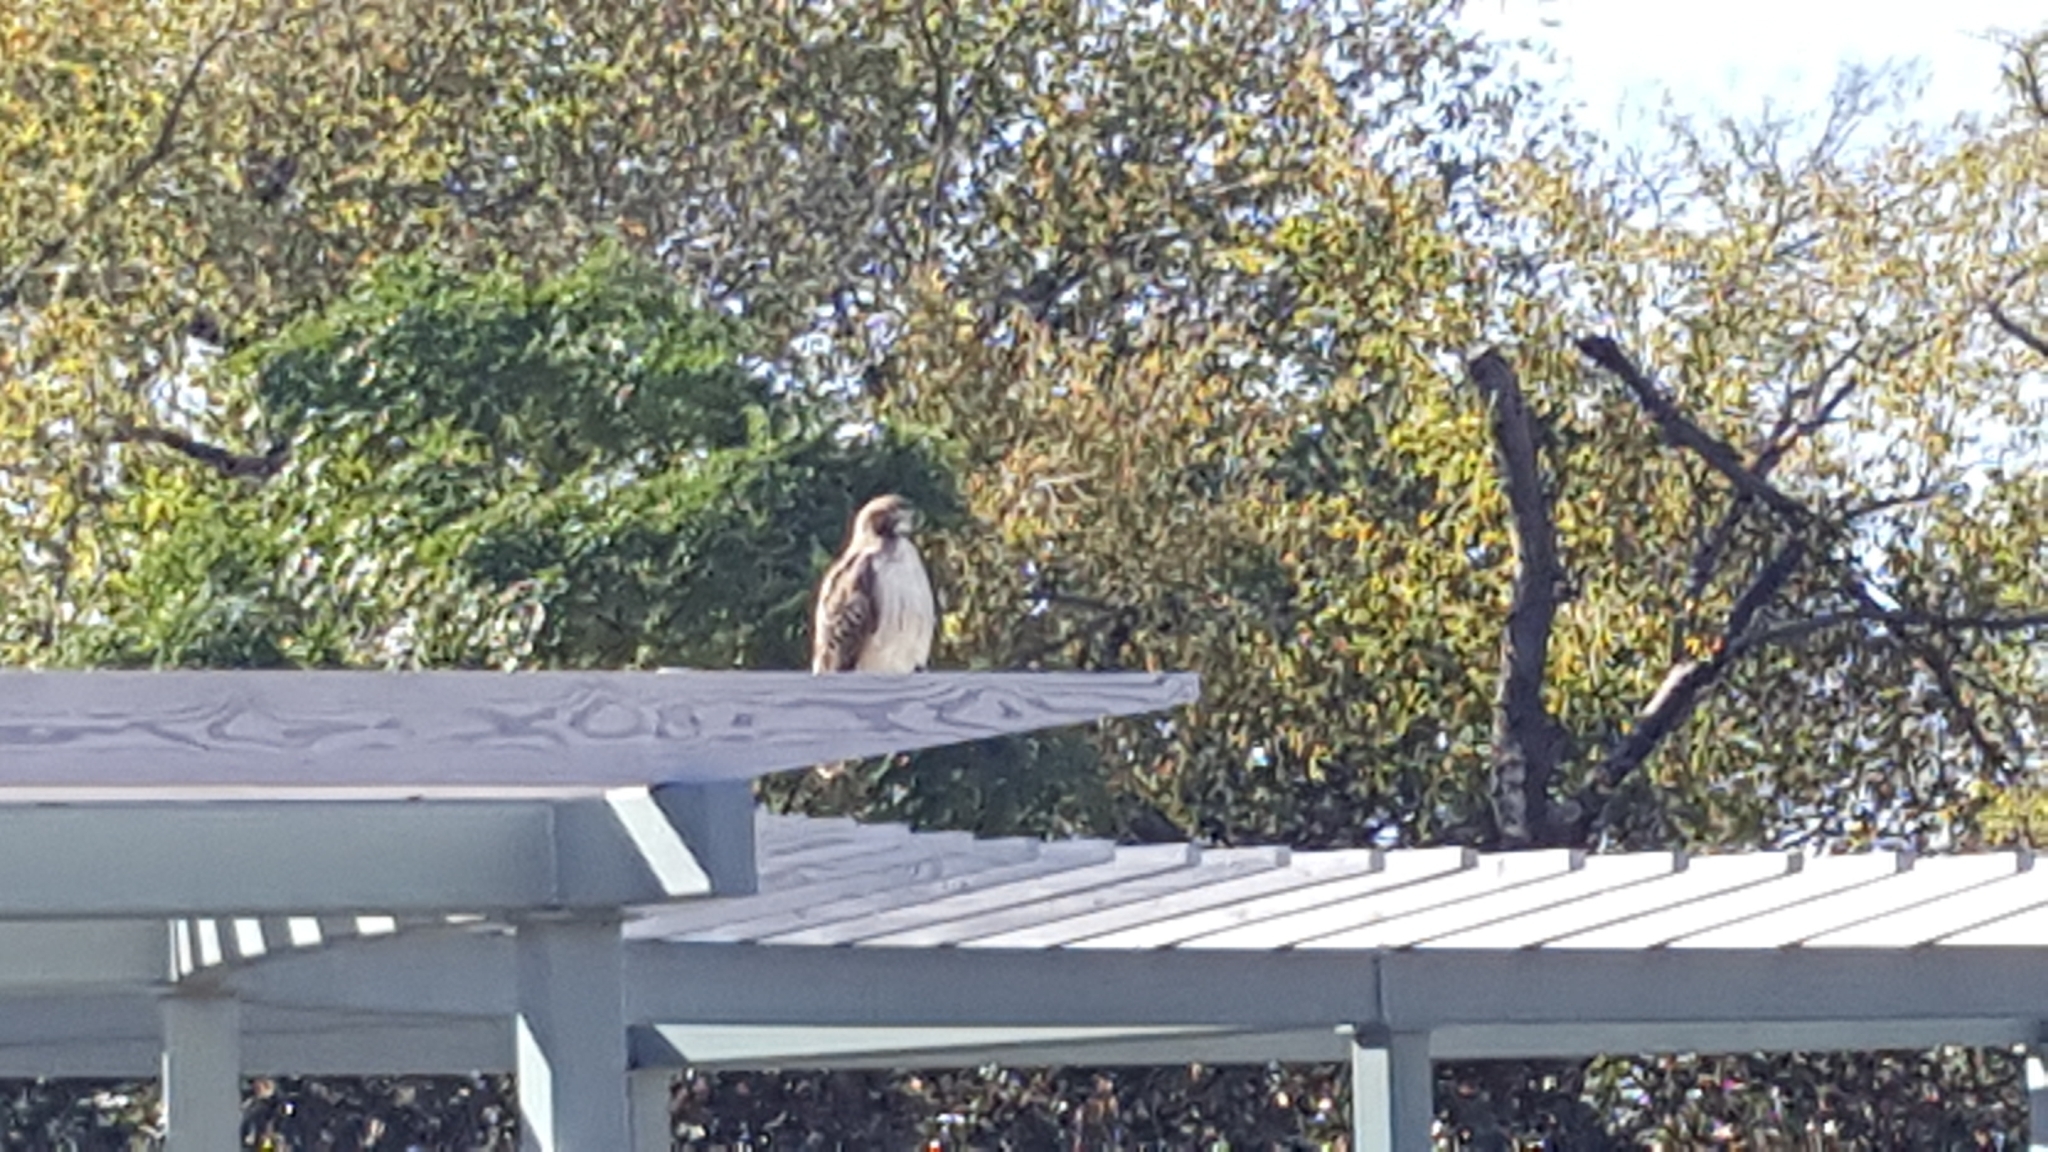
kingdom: Animalia
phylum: Chordata
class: Aves
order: Accipitriformes
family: Accipitridae
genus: Buteo
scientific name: Buteo jamaicensis
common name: Red-tailed hawk
